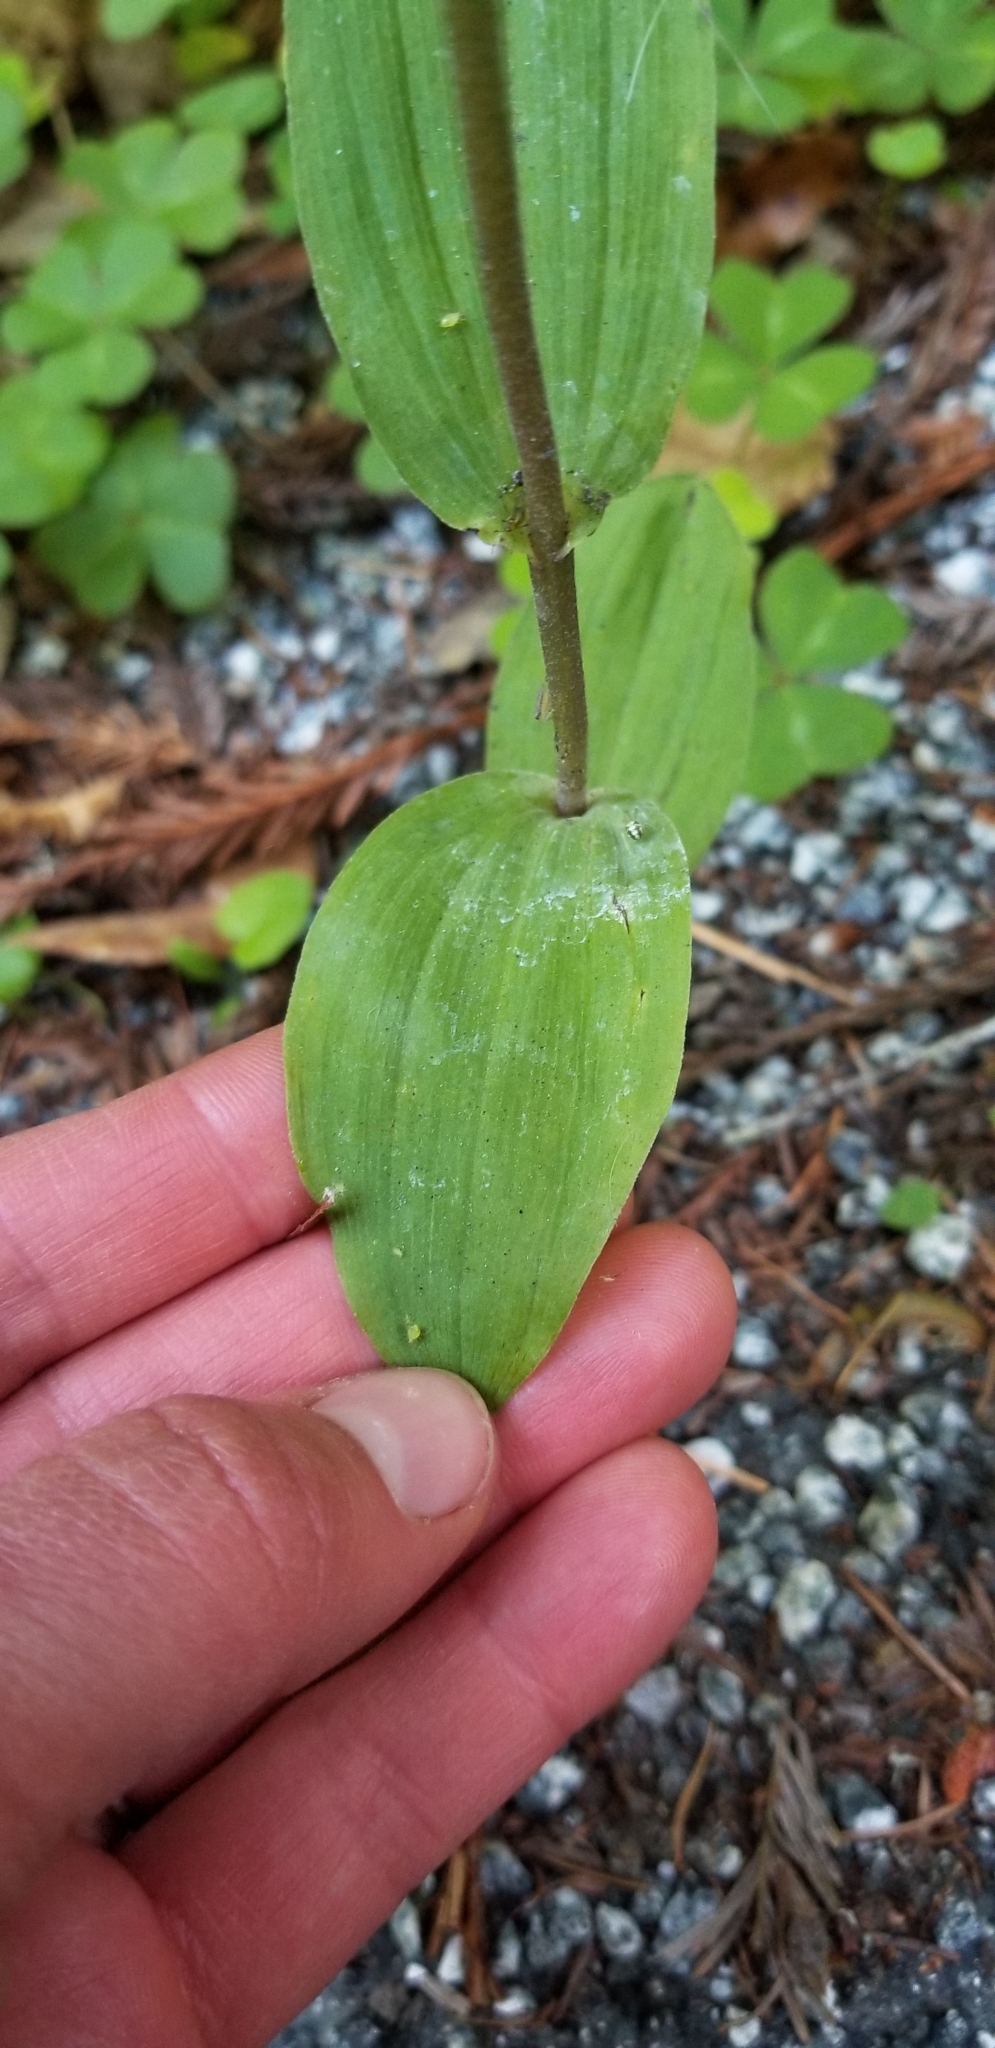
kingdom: Plantae
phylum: Tracheophyta
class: Liliopsida
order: Asparagales
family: Orchidaceae
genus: Epipactis
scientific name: Epipactis helleborine
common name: Broad-leaved helleborine
